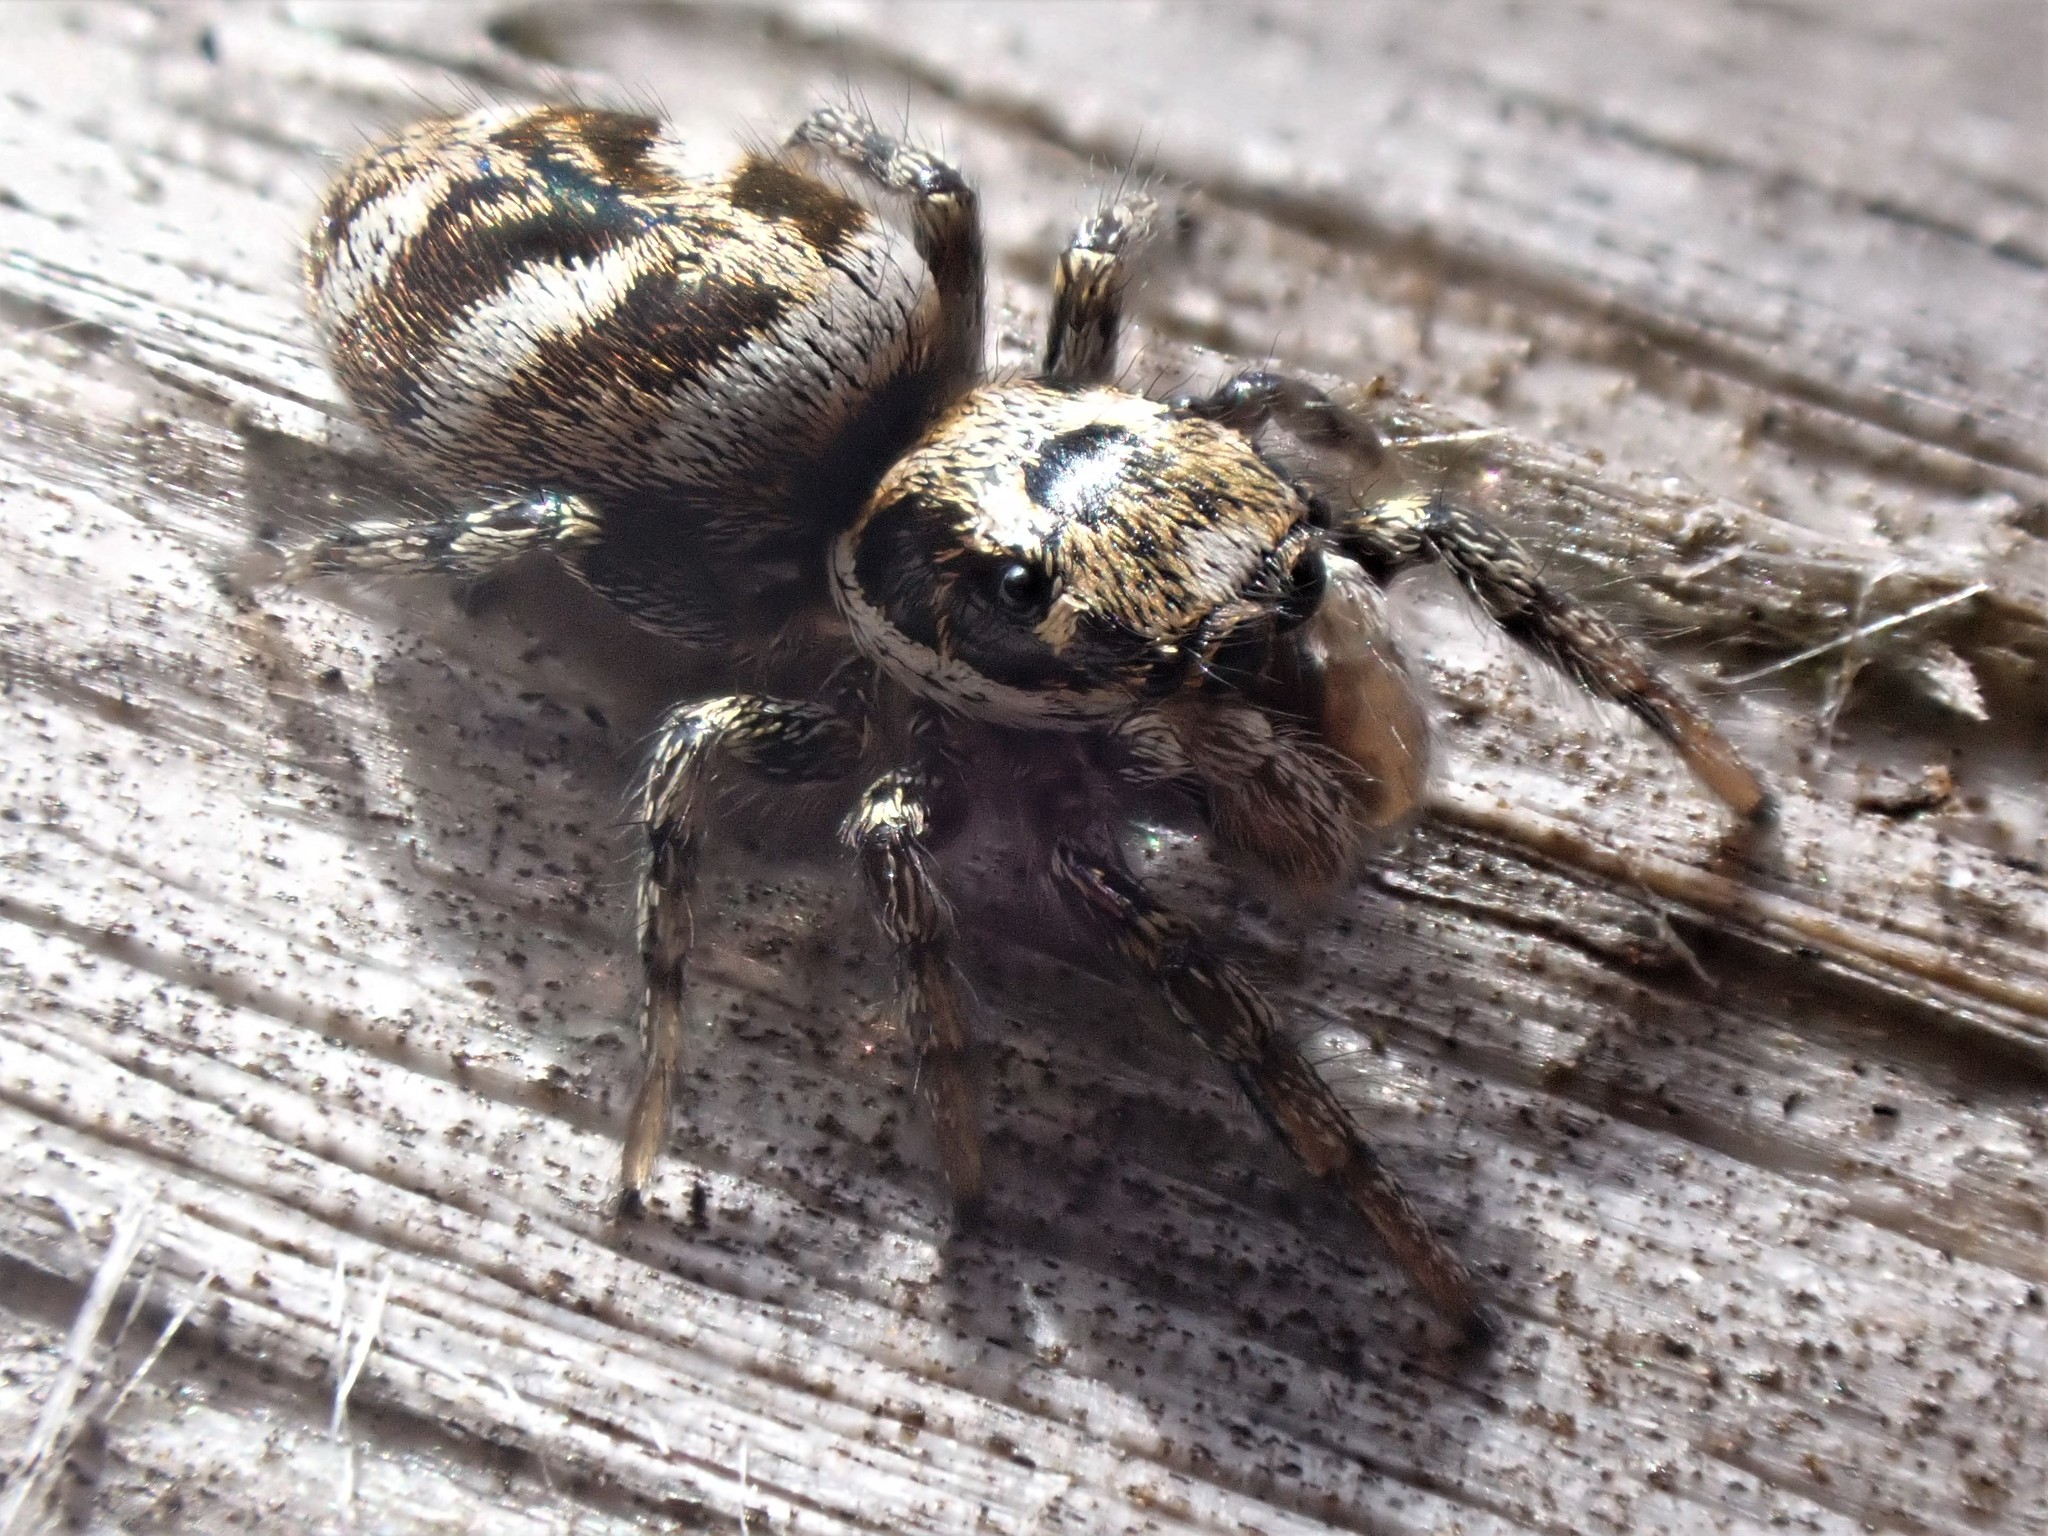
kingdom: Animalia
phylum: Arthropoda
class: Arachnida
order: Araneae
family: Salticidae
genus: Salticus
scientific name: Salticus scenicus
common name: Zebra jumper
